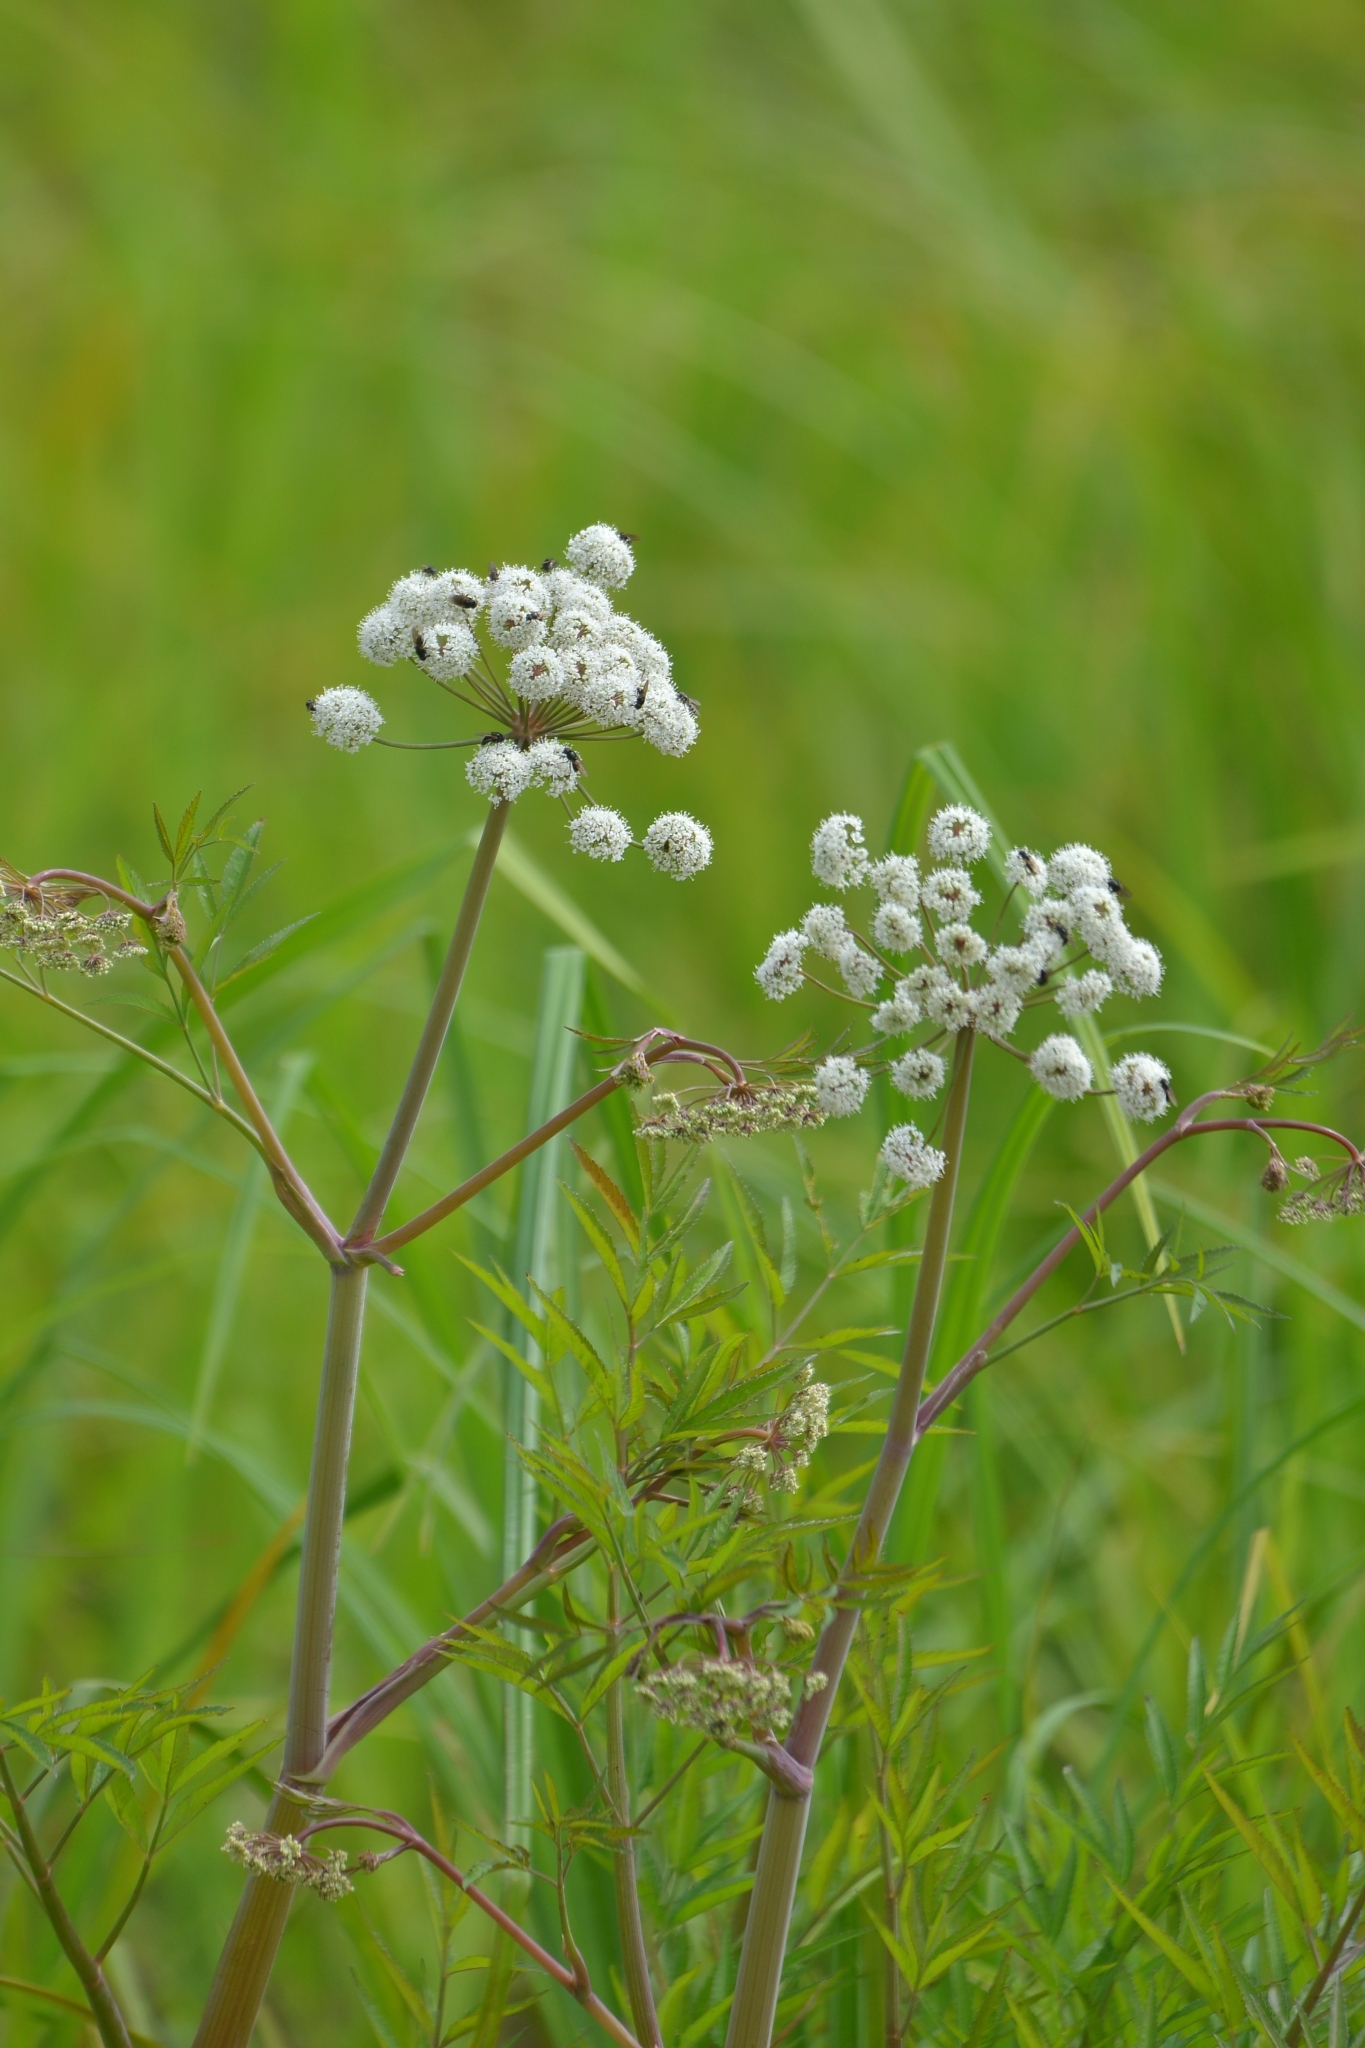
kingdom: Plantae
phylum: Tracheophyta
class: Magnoliopsida
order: Apiales
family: Apiaceae
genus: Cicuta
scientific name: Cicuta virosa
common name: Cowbane
